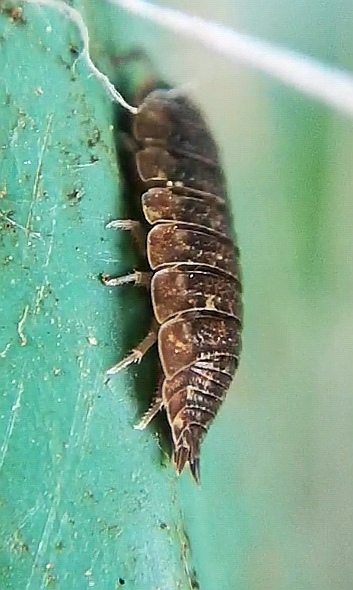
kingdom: Animalia
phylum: Arthropoda
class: Malacostraca
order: Isopoda
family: Porcellionidae
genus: Porcellio
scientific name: Porcellio scaber
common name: Common rough woodlouse
